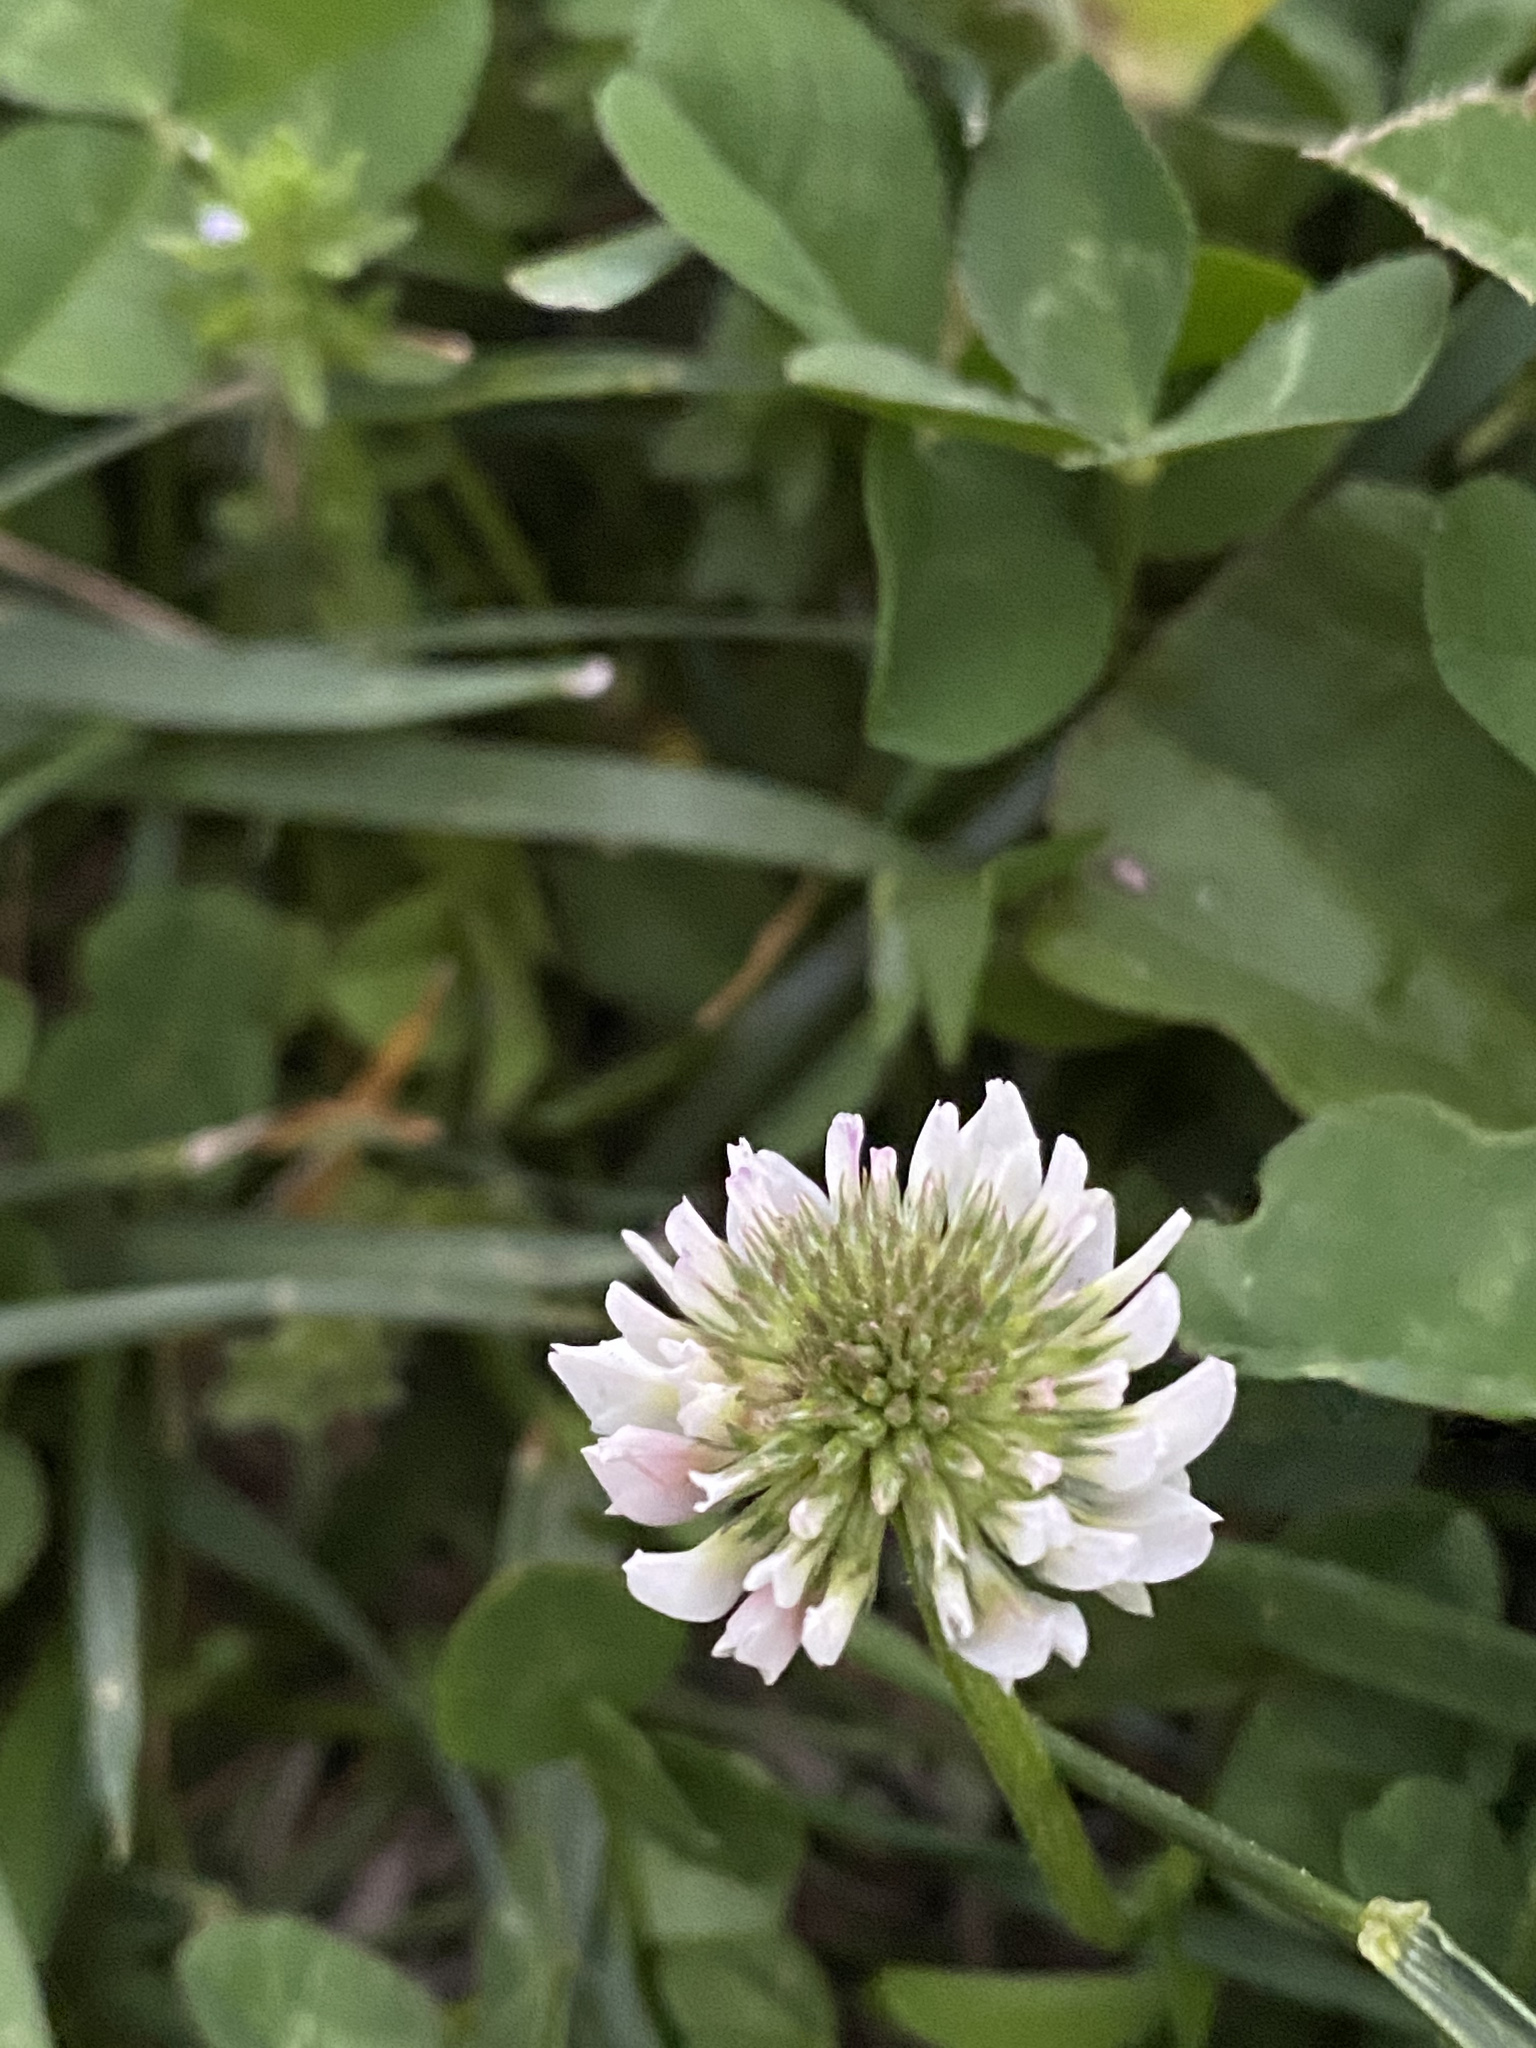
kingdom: Plantae
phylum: Tracheophyta
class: Magnoliopsida
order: Fabales
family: Fabaceae
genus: Trifolium
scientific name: Trifolium repens
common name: White clover
